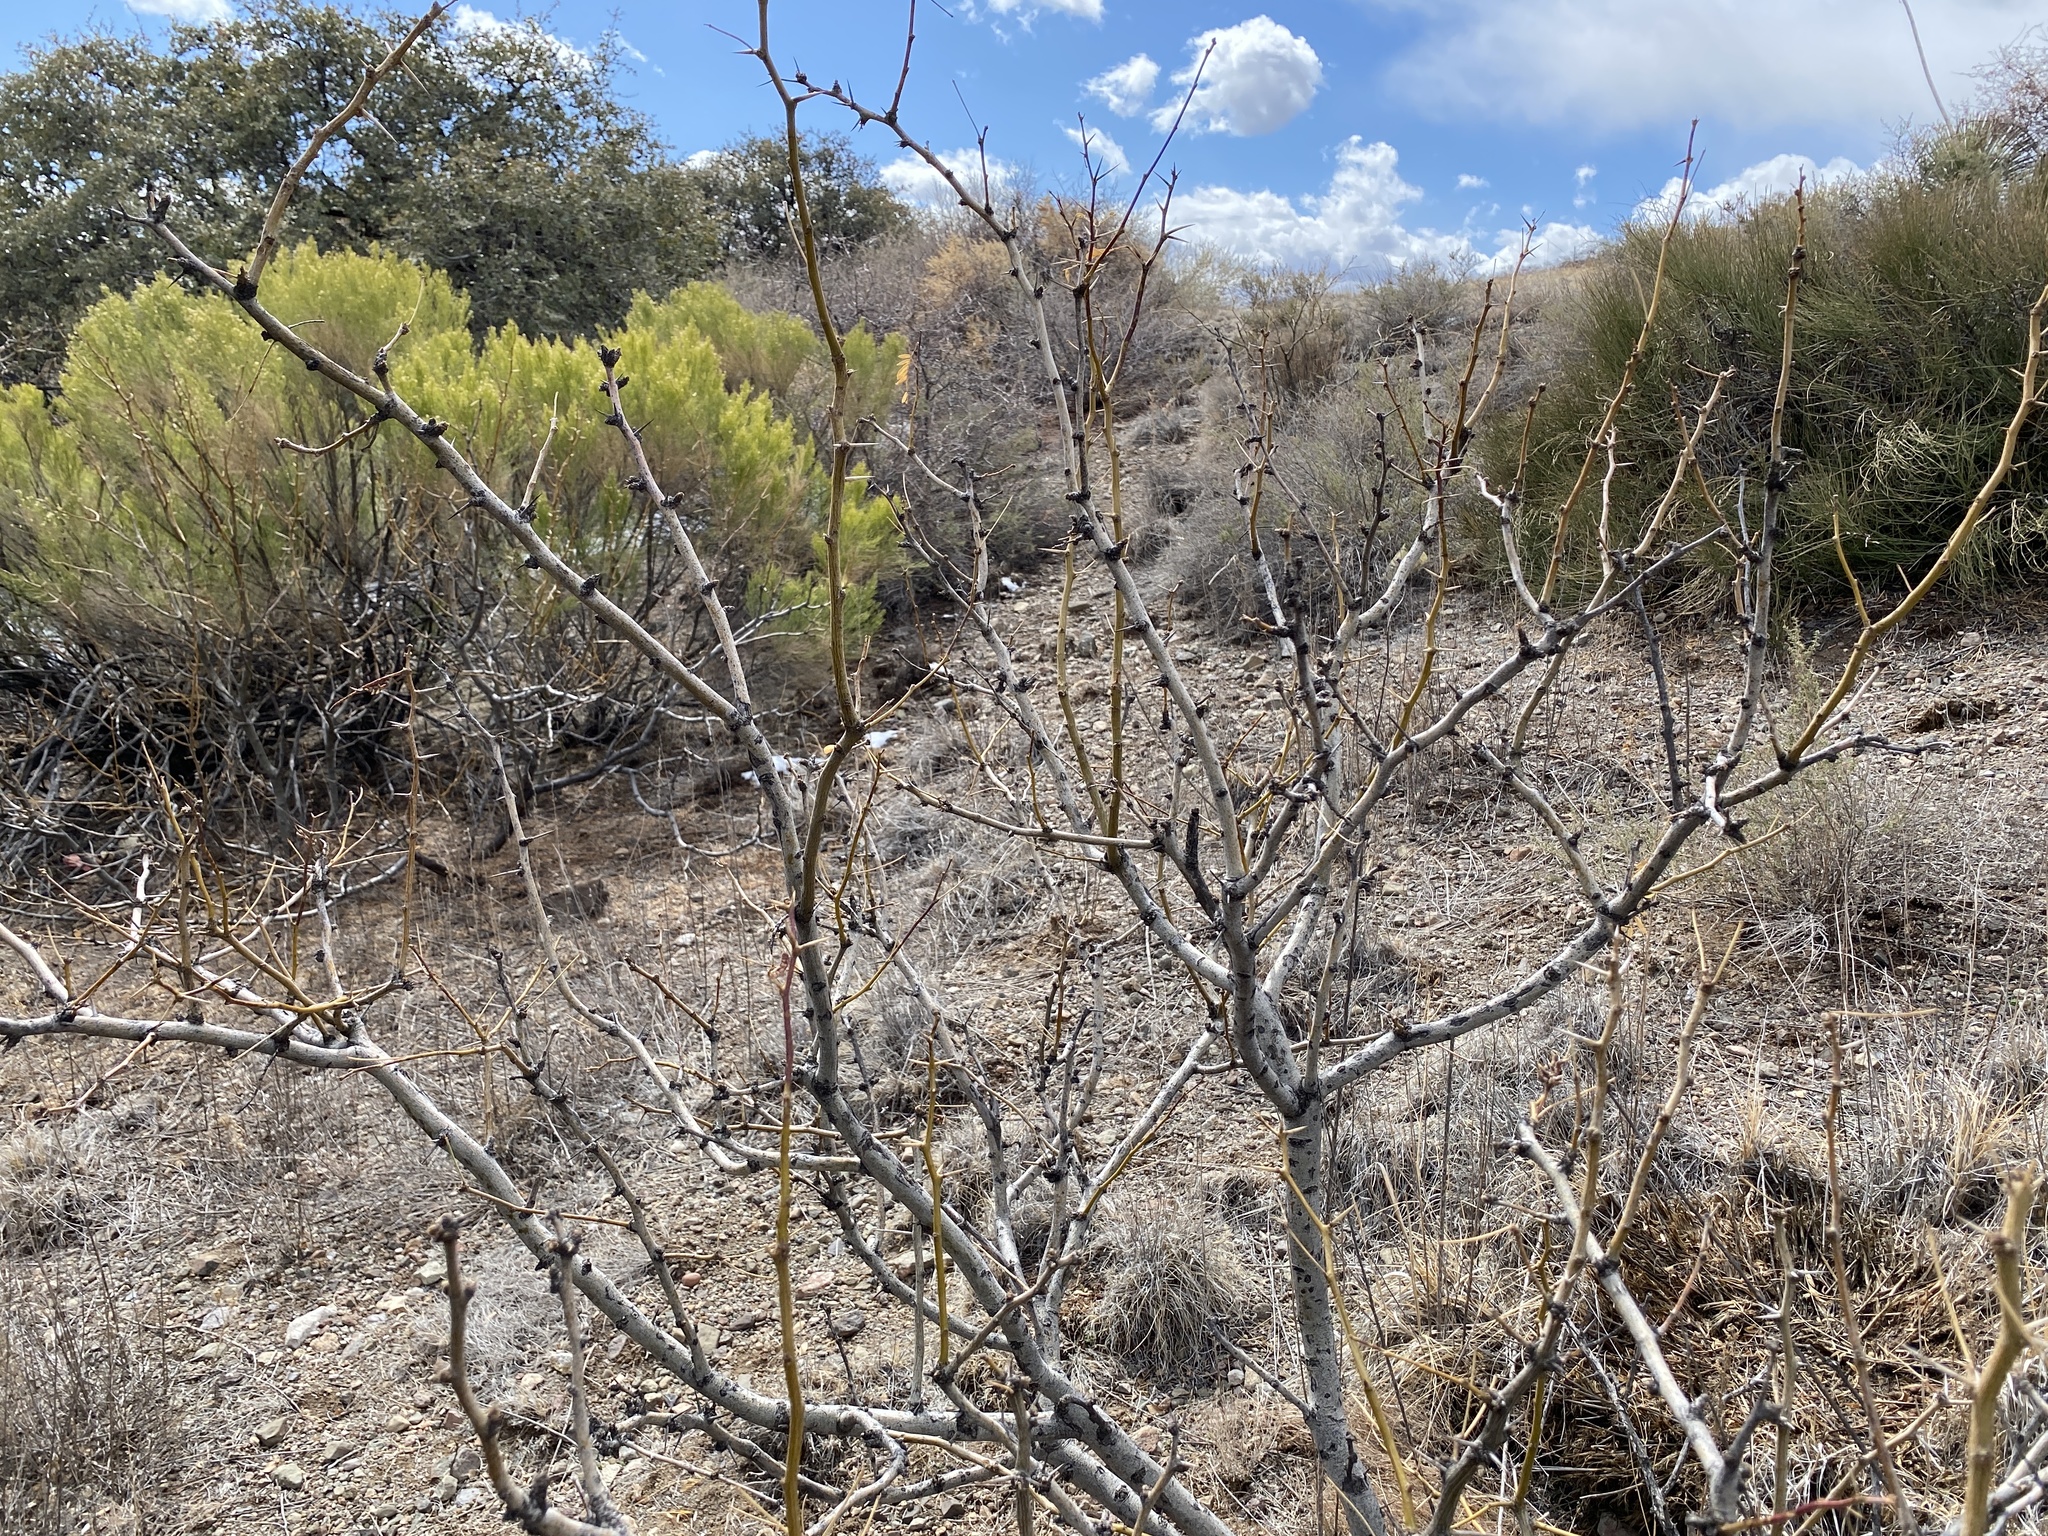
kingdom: Plantae
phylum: Tracheophyta
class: Magnoliopsida
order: Fabales
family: Fabaceae
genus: Prosopis
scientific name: Prosopis glandulosa
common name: Honey mesquite
